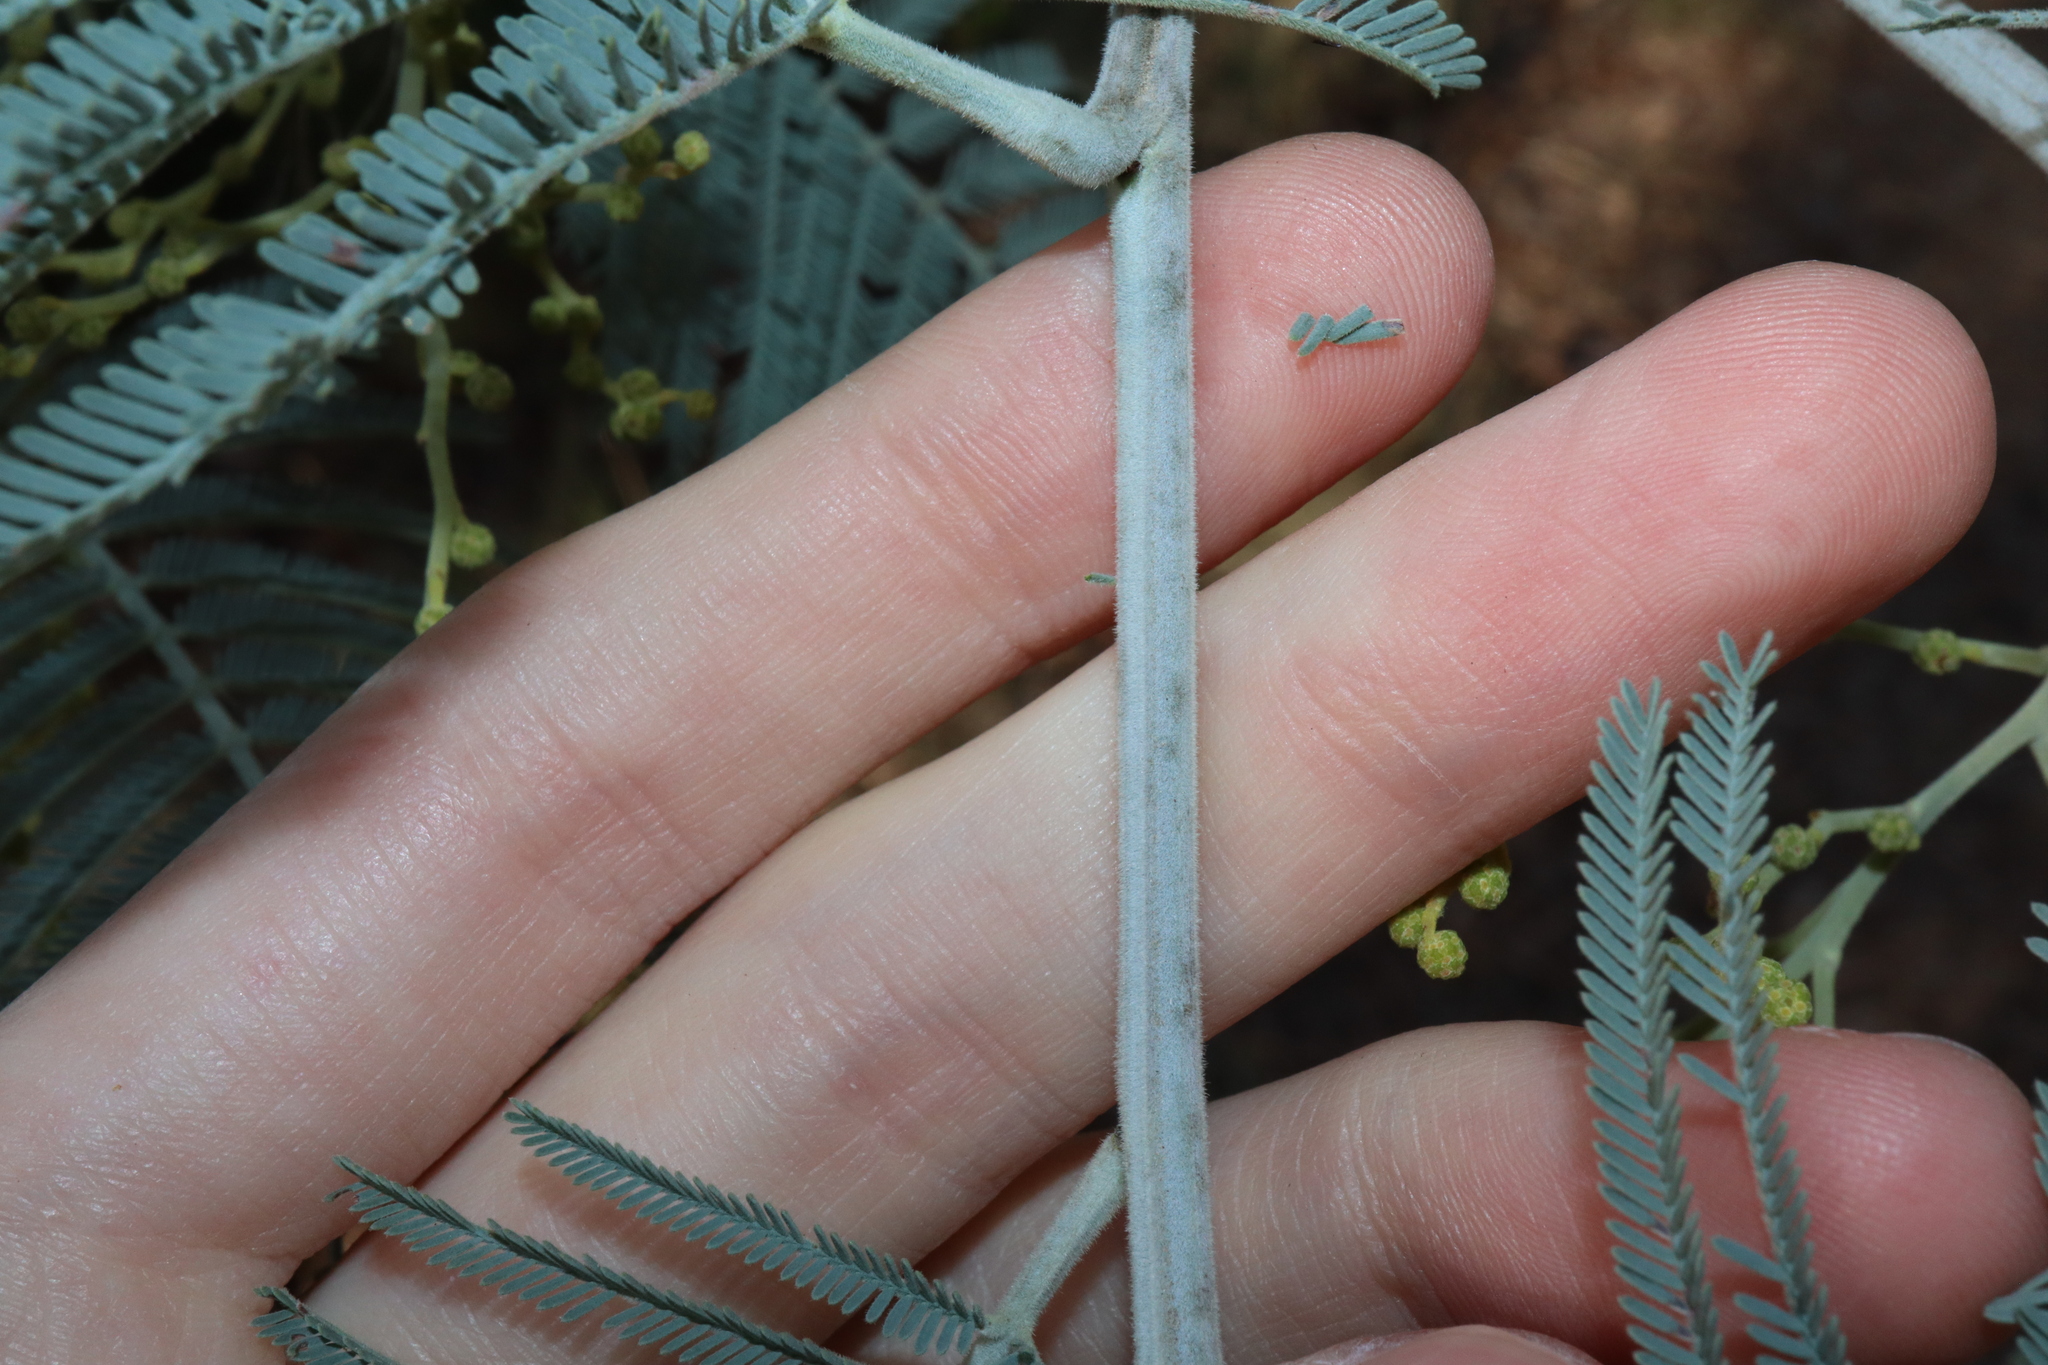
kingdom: Plantae
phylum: Tracheophyta
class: Magnoliopsida
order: Fabales
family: Fabaceae
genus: Acacia
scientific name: Acacia dealbata
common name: Silver wattle
